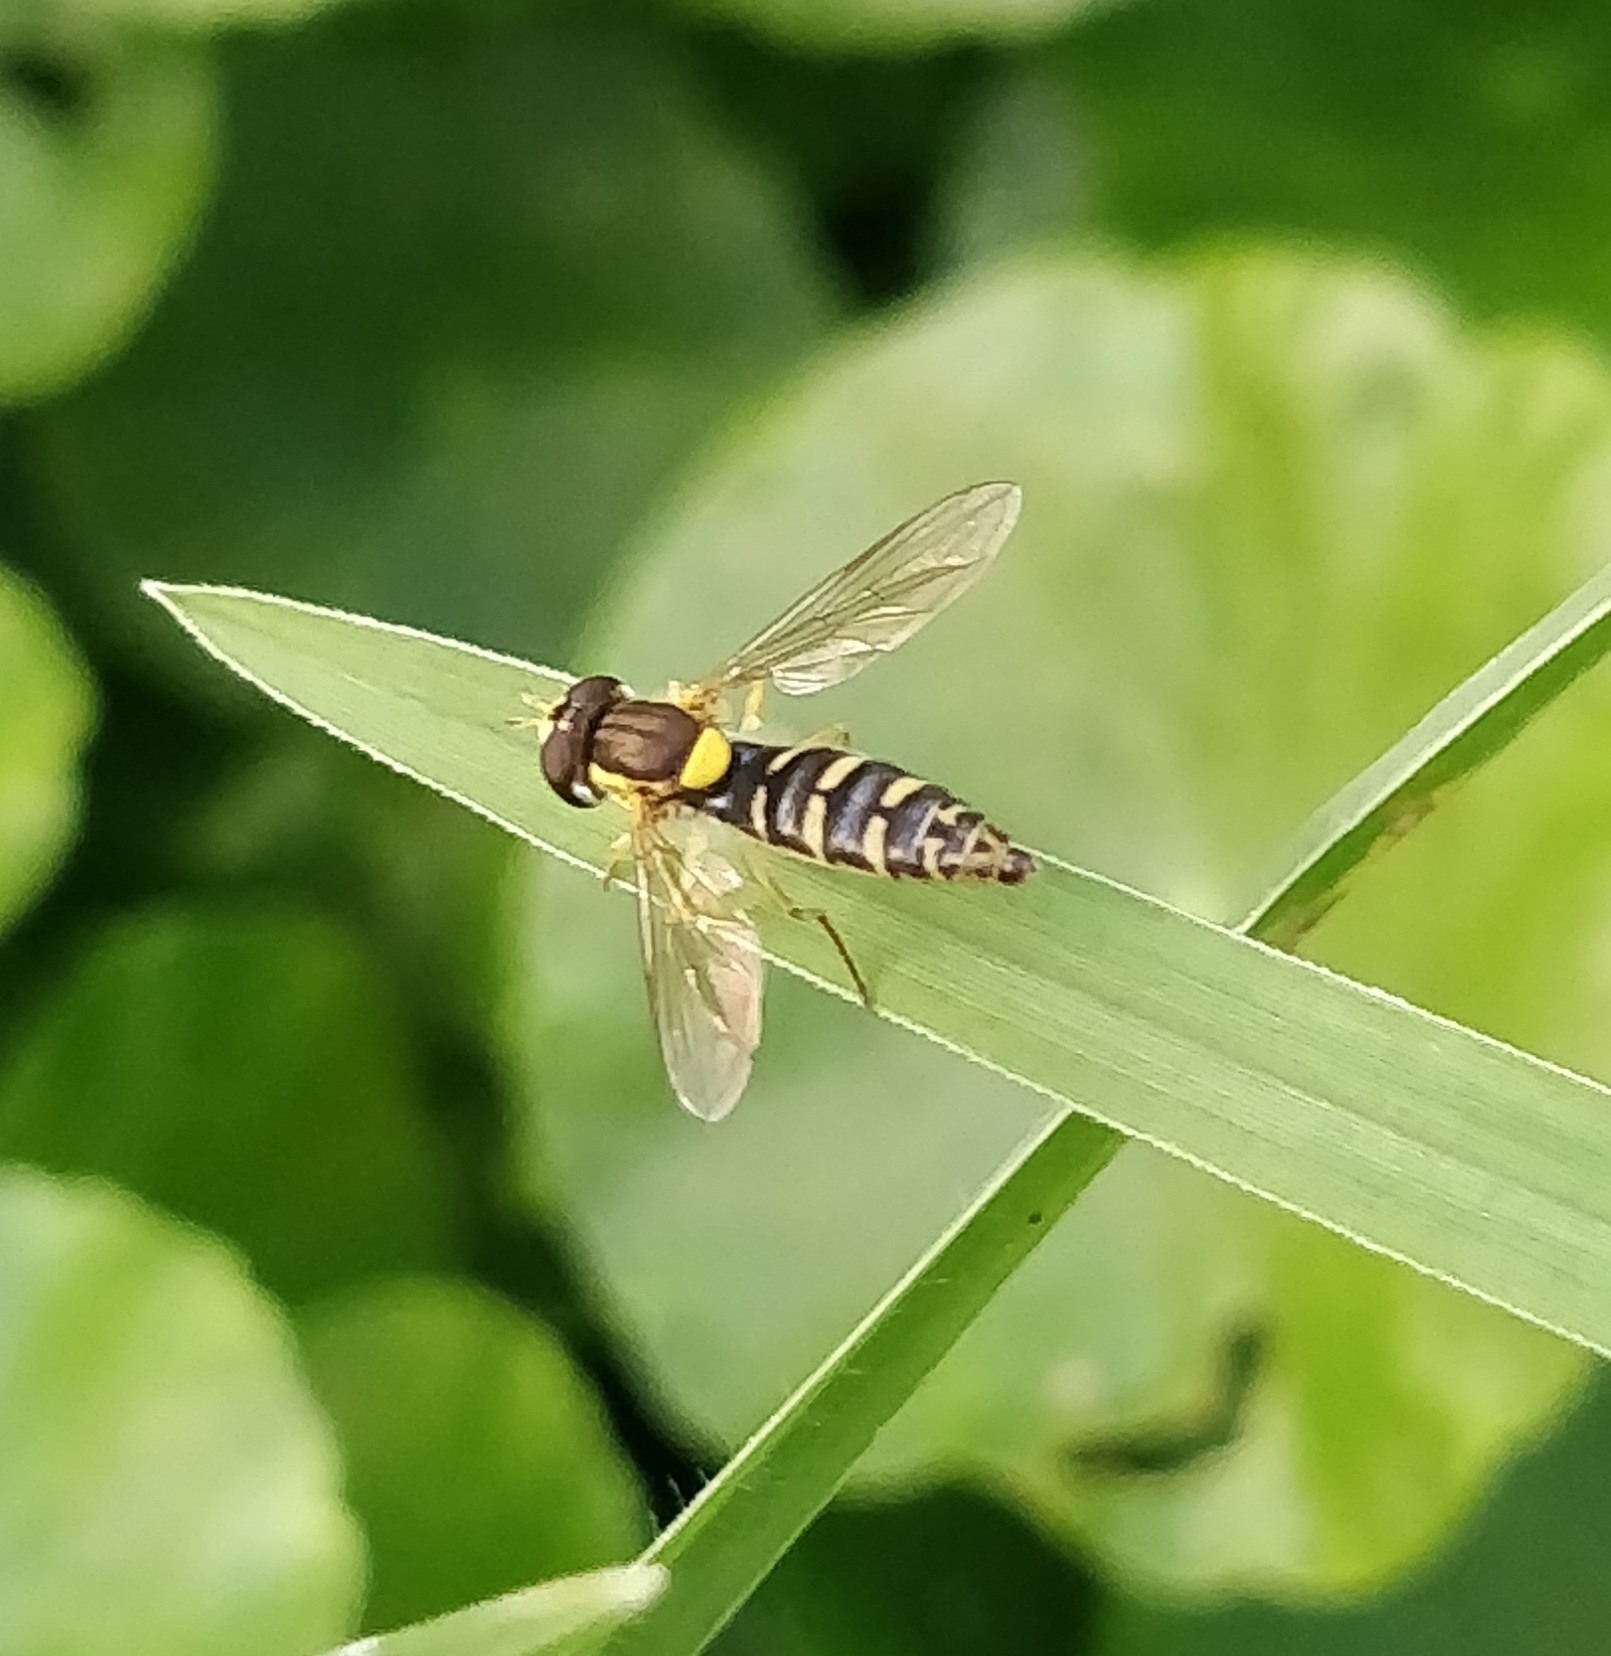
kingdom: Animalia
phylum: Arthropoda
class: Insecta
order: Diptera
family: Syrphidae
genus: Sphaerophoria
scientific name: Sphaerophoria scripta
